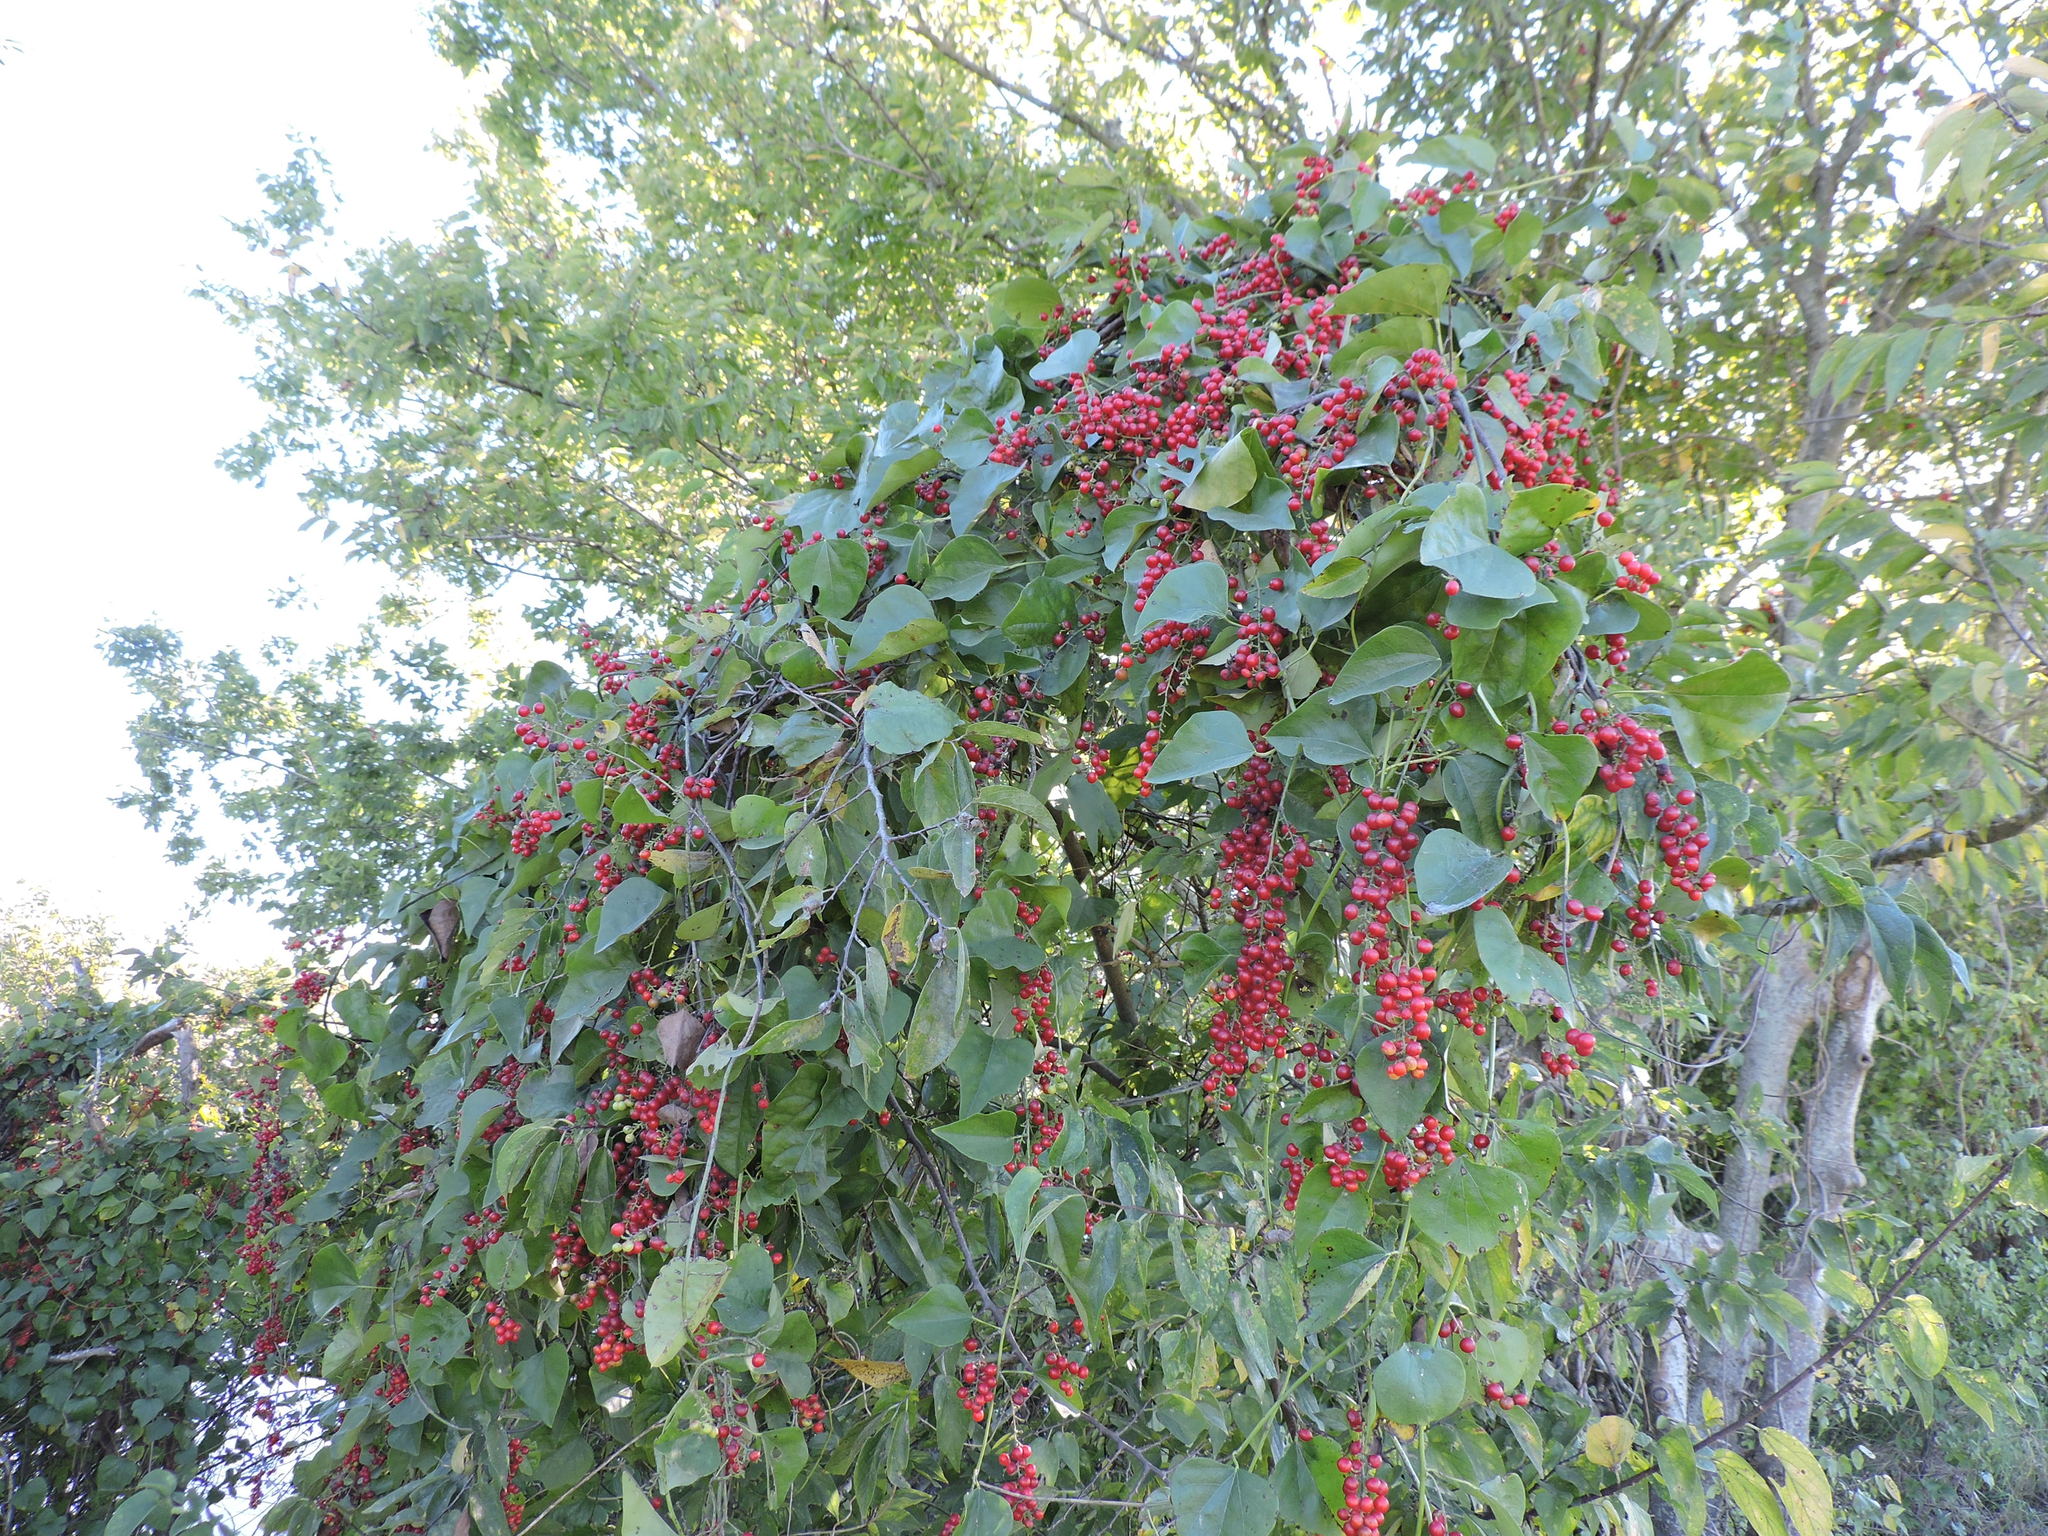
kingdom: Plantae
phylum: Tracheophyta
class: Magnoliopsida
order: Ranunculales
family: Menispermaceae
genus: Cocculus
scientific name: Cocculus carolinus
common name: Carolina moonseed
